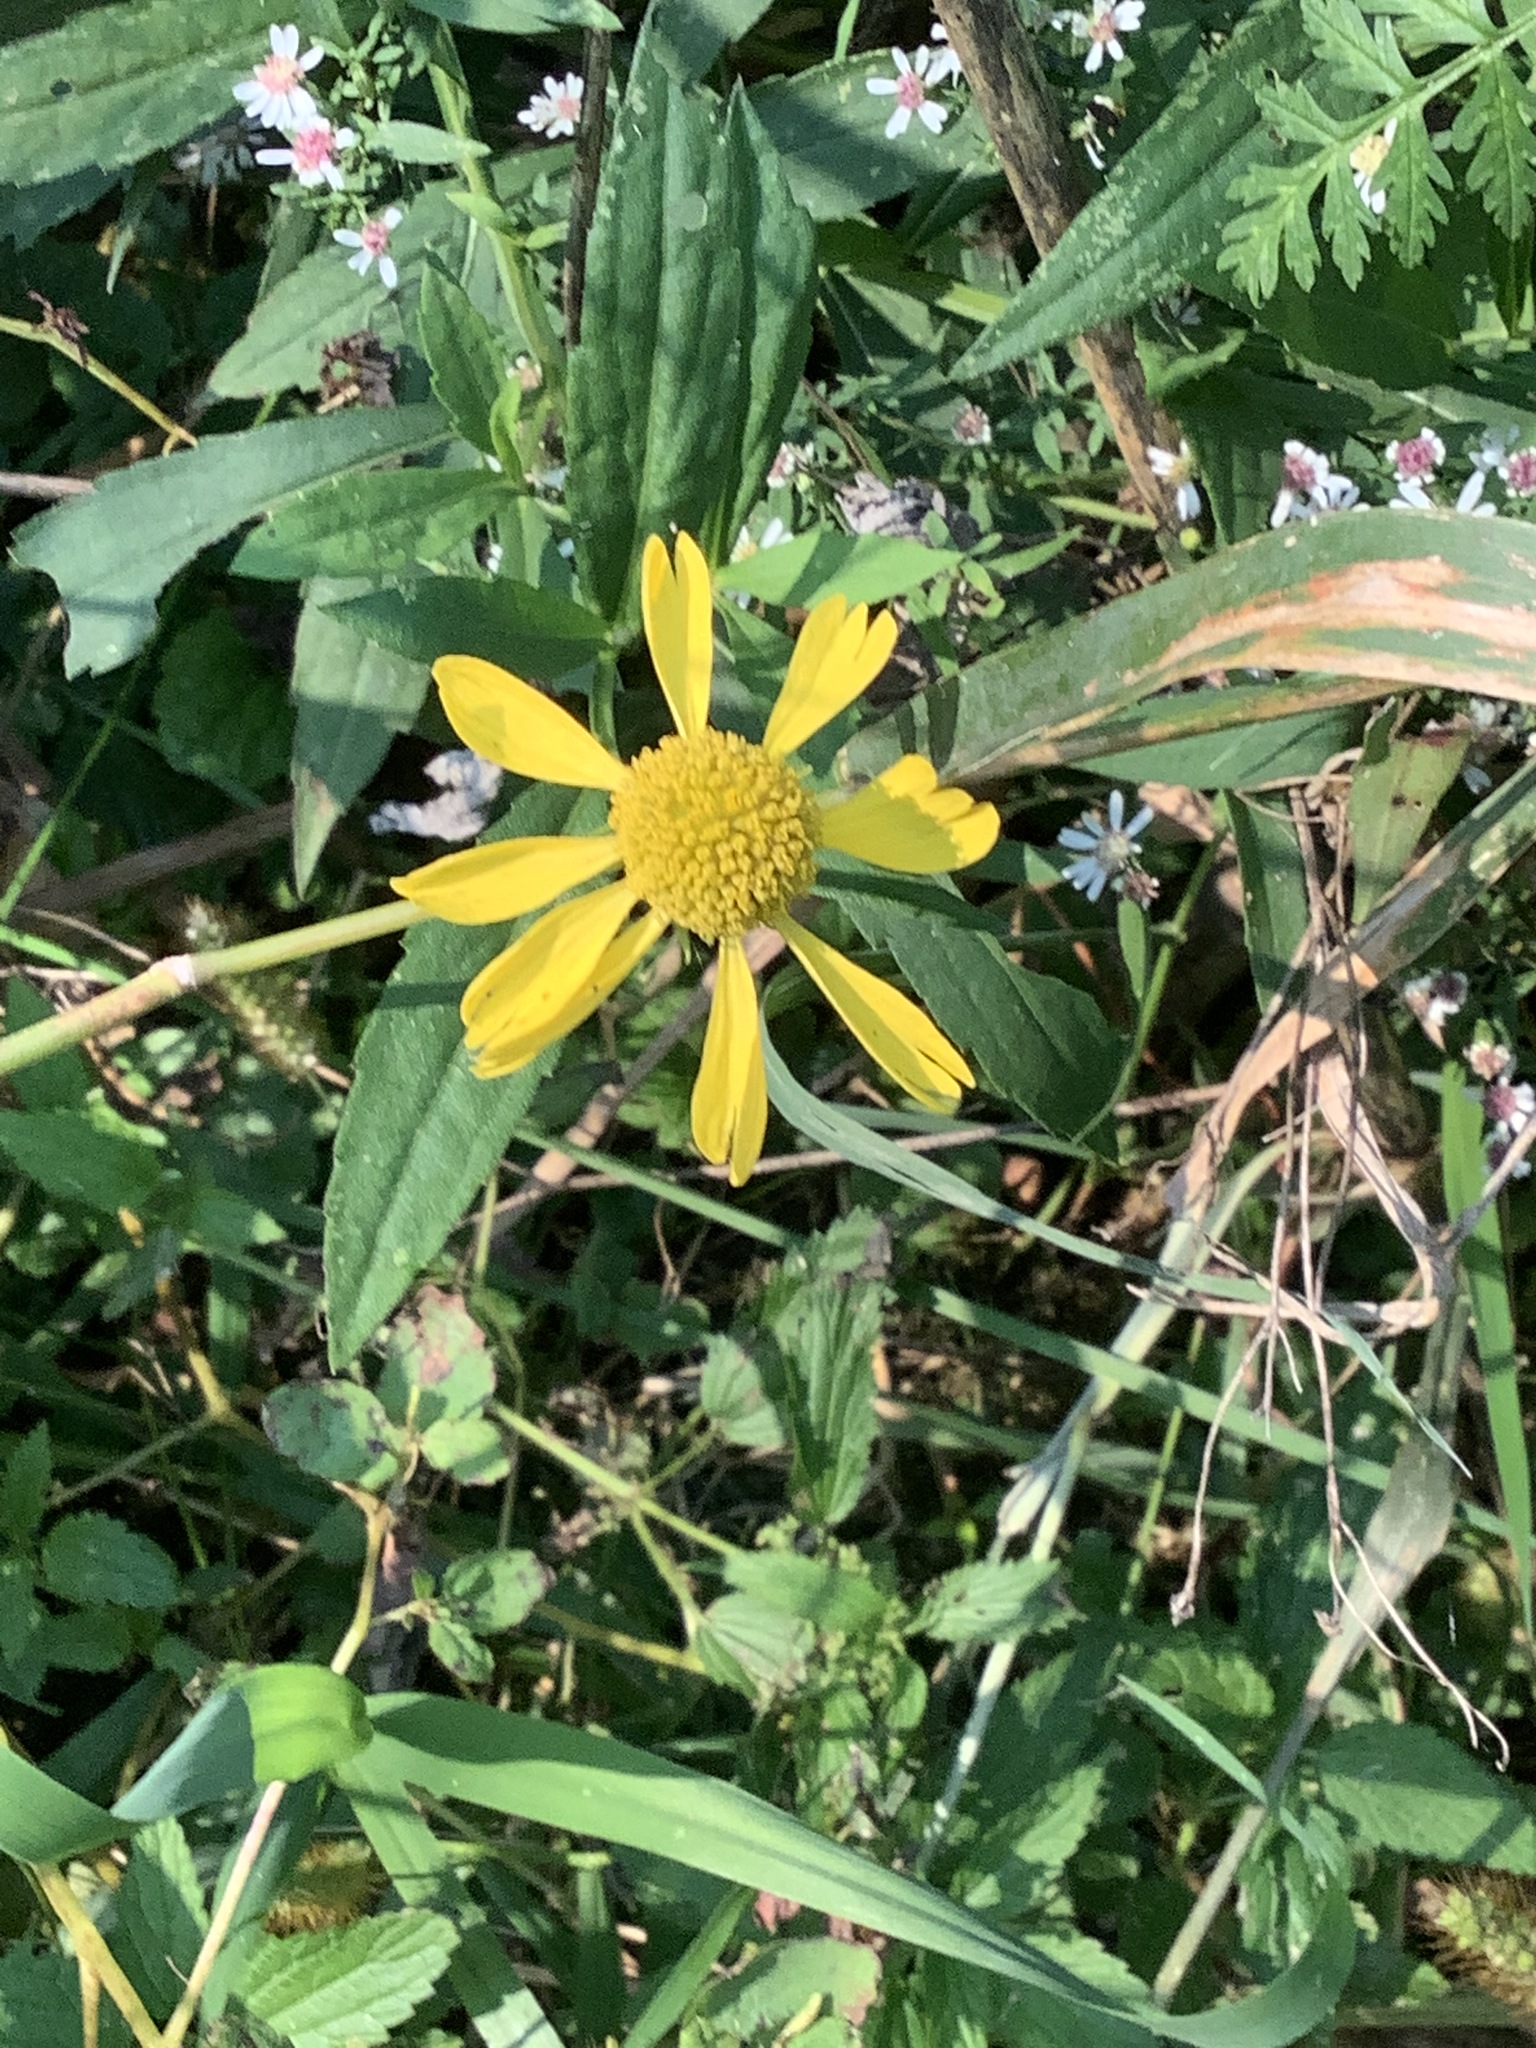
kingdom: Plantae
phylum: Tracheophyta
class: Magnoliopsida
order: Asterales
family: Asteraceae
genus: Helenium
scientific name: Helenium autumnale
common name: Sneezeweed
